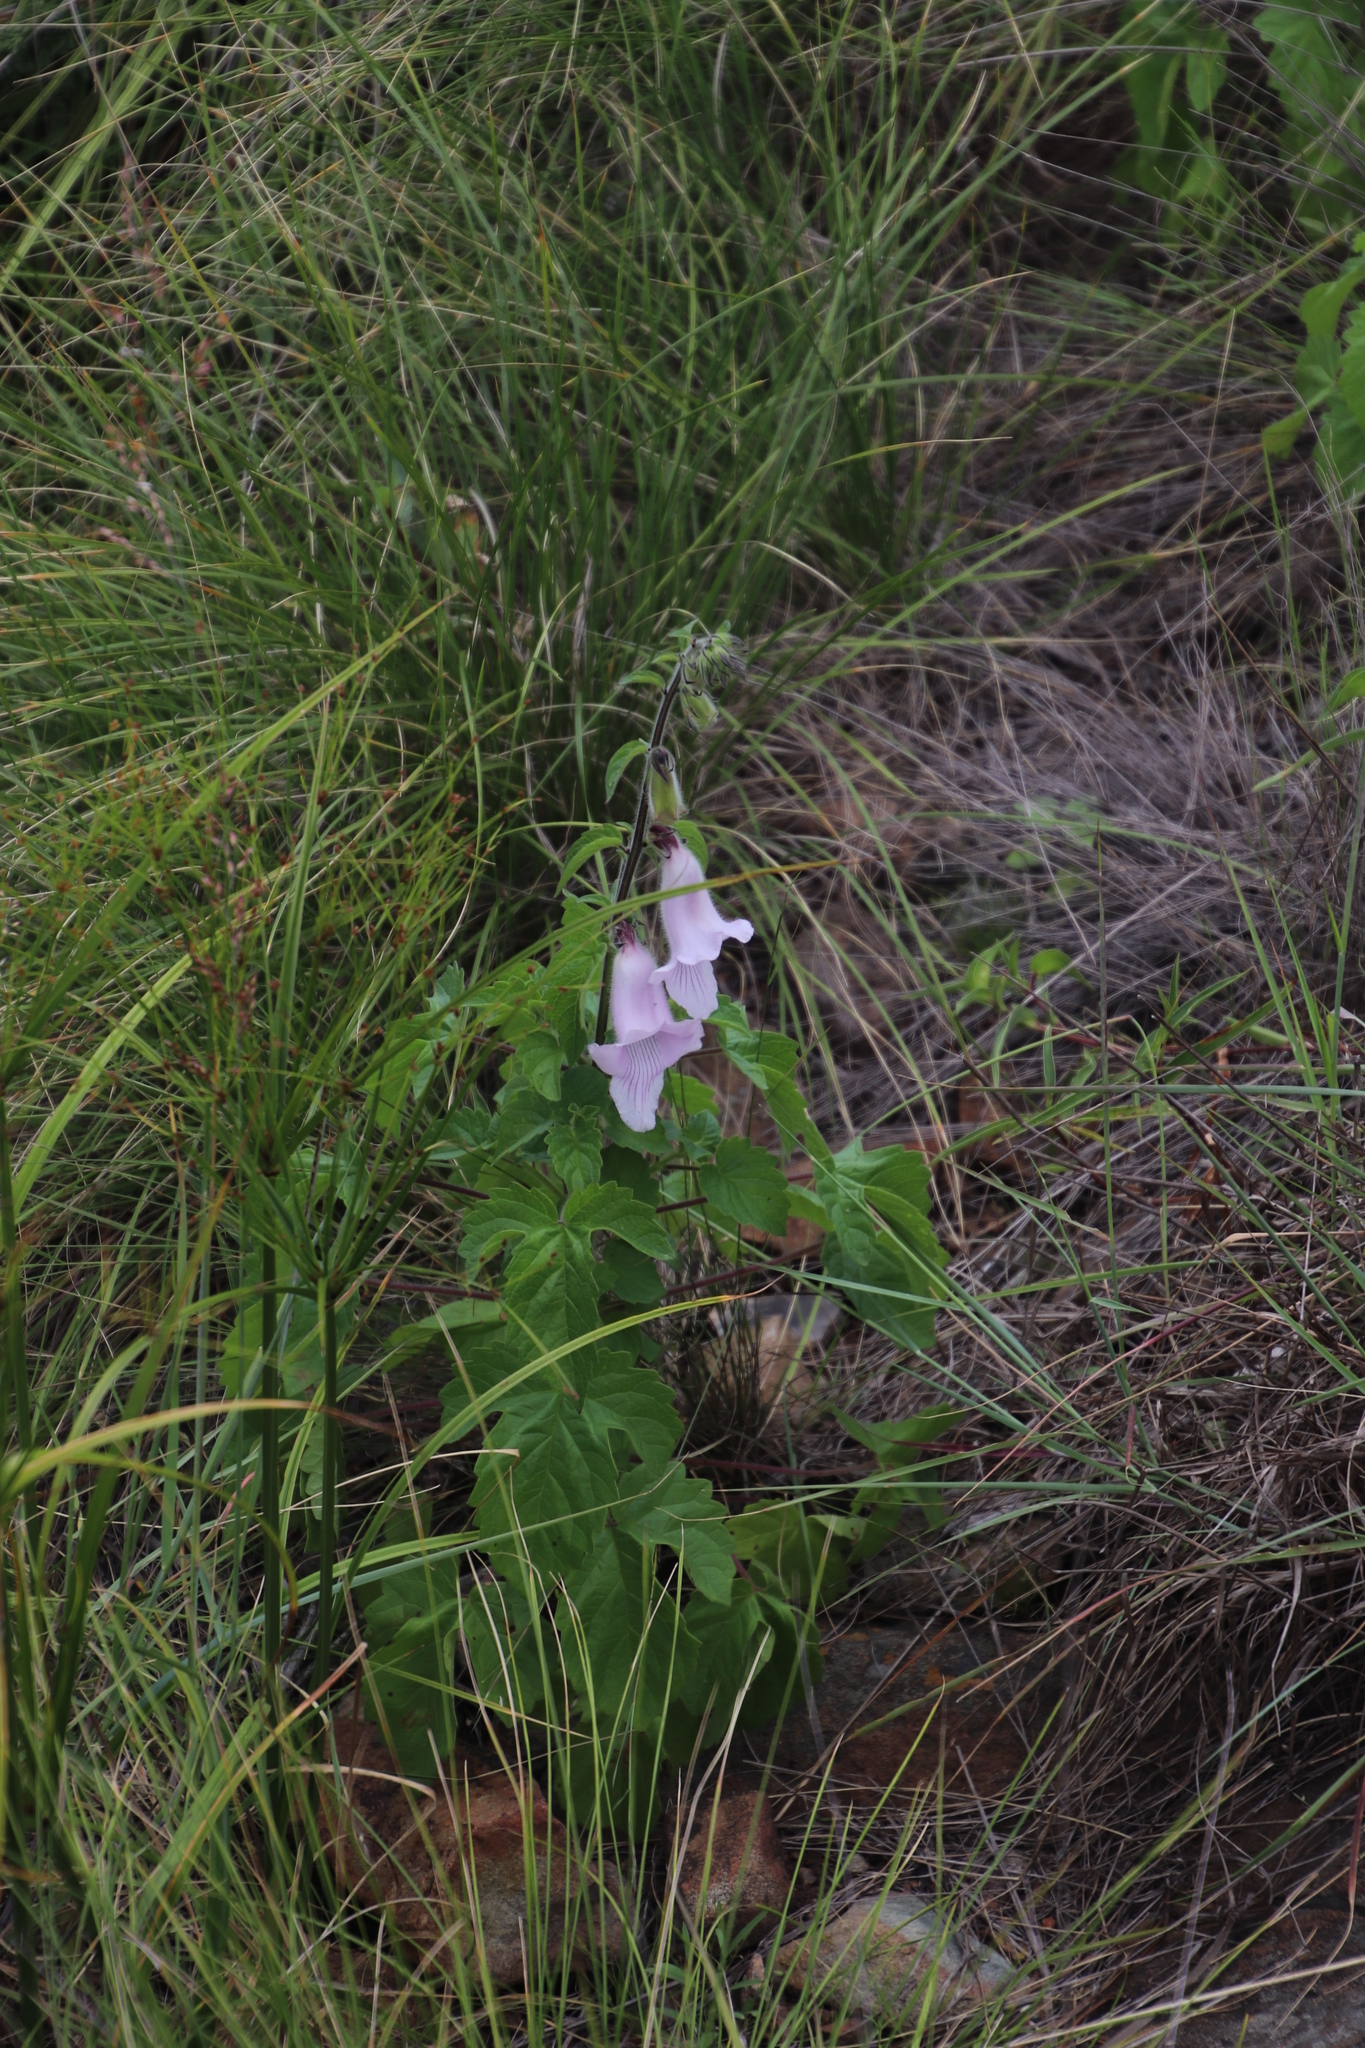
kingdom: Plantae
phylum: Tracheophyta
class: Magnoliopsida
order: Lamiales
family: Pedaliaceae
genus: Sesamum
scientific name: Sesamum trilobum
